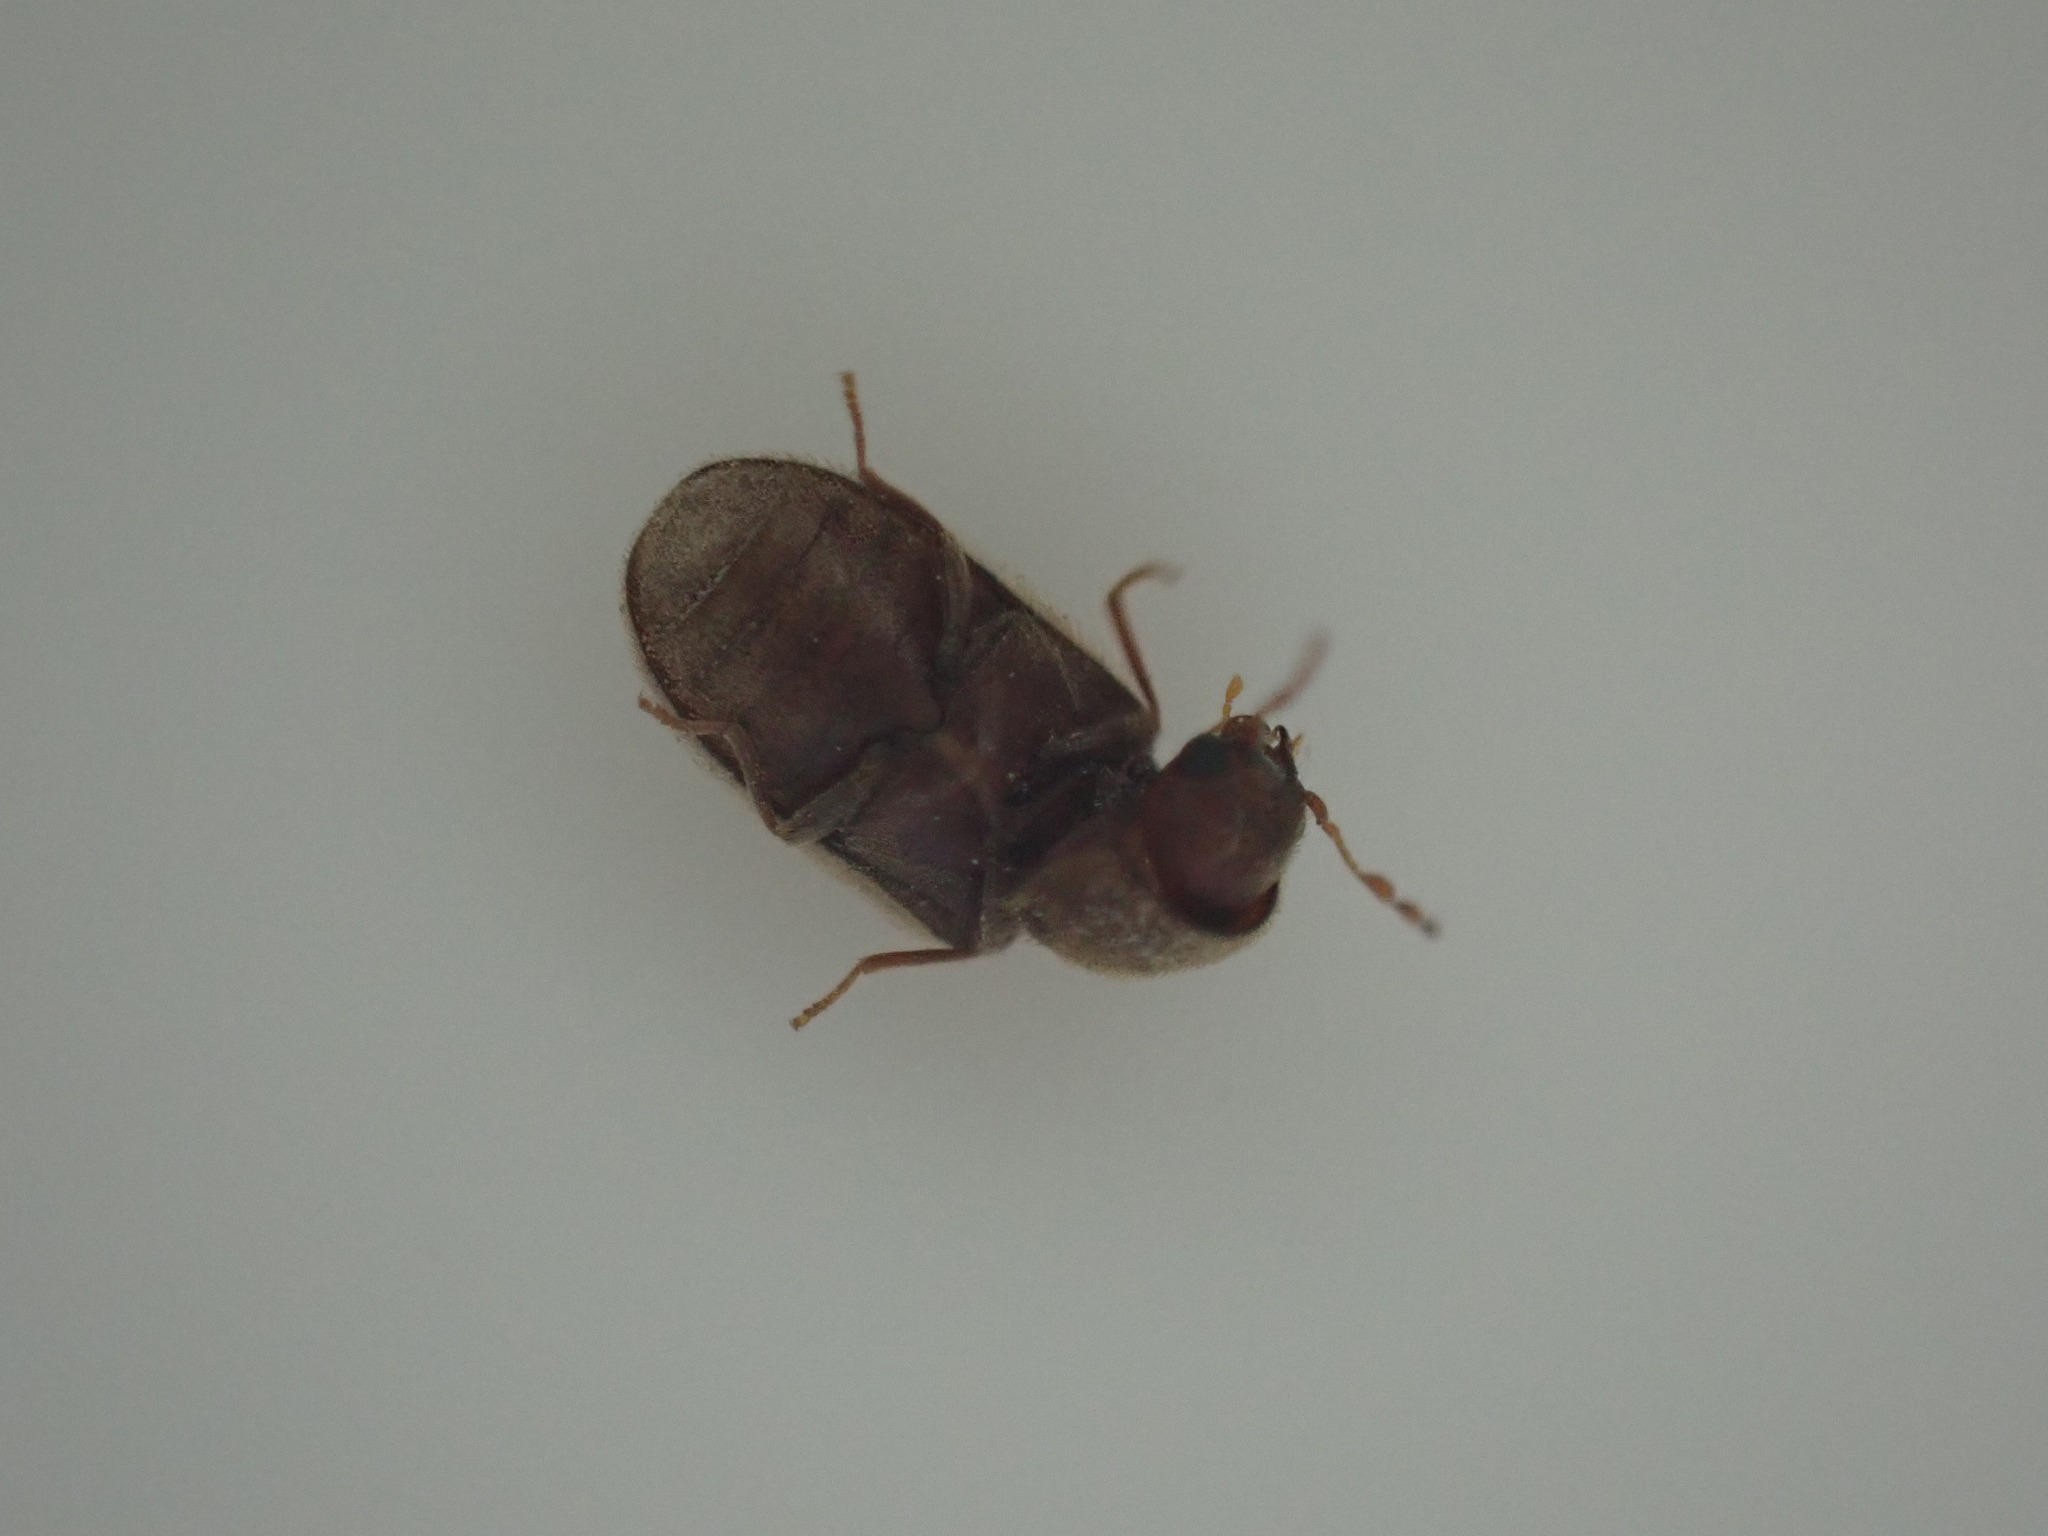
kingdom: Animalia
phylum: Arthropoda
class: Insecta
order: Coleoptera
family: Anobiidae
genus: Stegobium
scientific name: Stegobium paniceum
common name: Drugstore beetle
